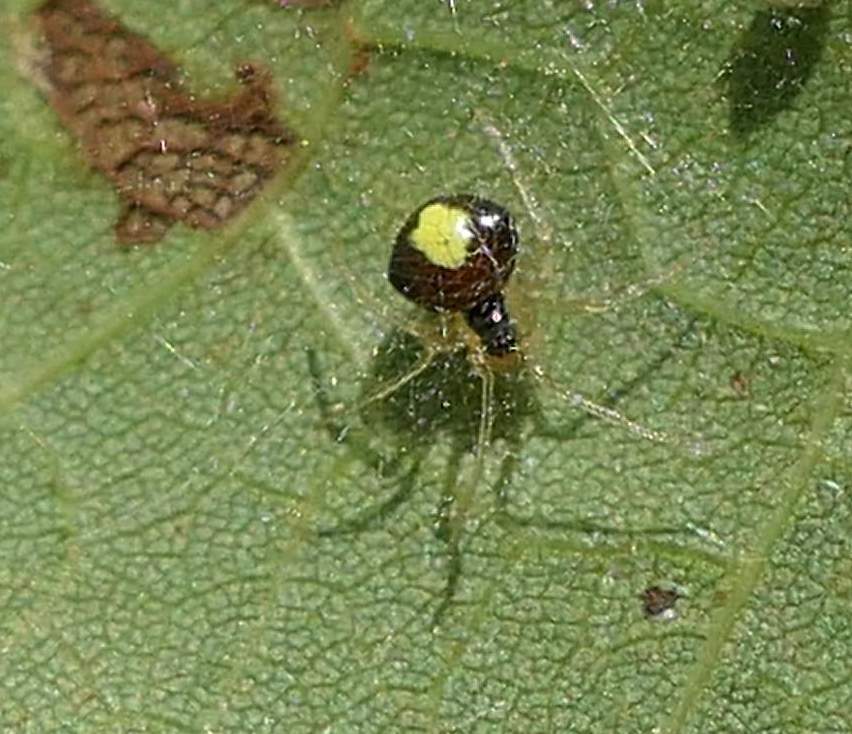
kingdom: Animalia
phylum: Arthropoda
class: Arachnida
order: Araneae
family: Theridiidae
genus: Theridula
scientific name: Theridula emertoni
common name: Emerton's bitubercled cobweaver
